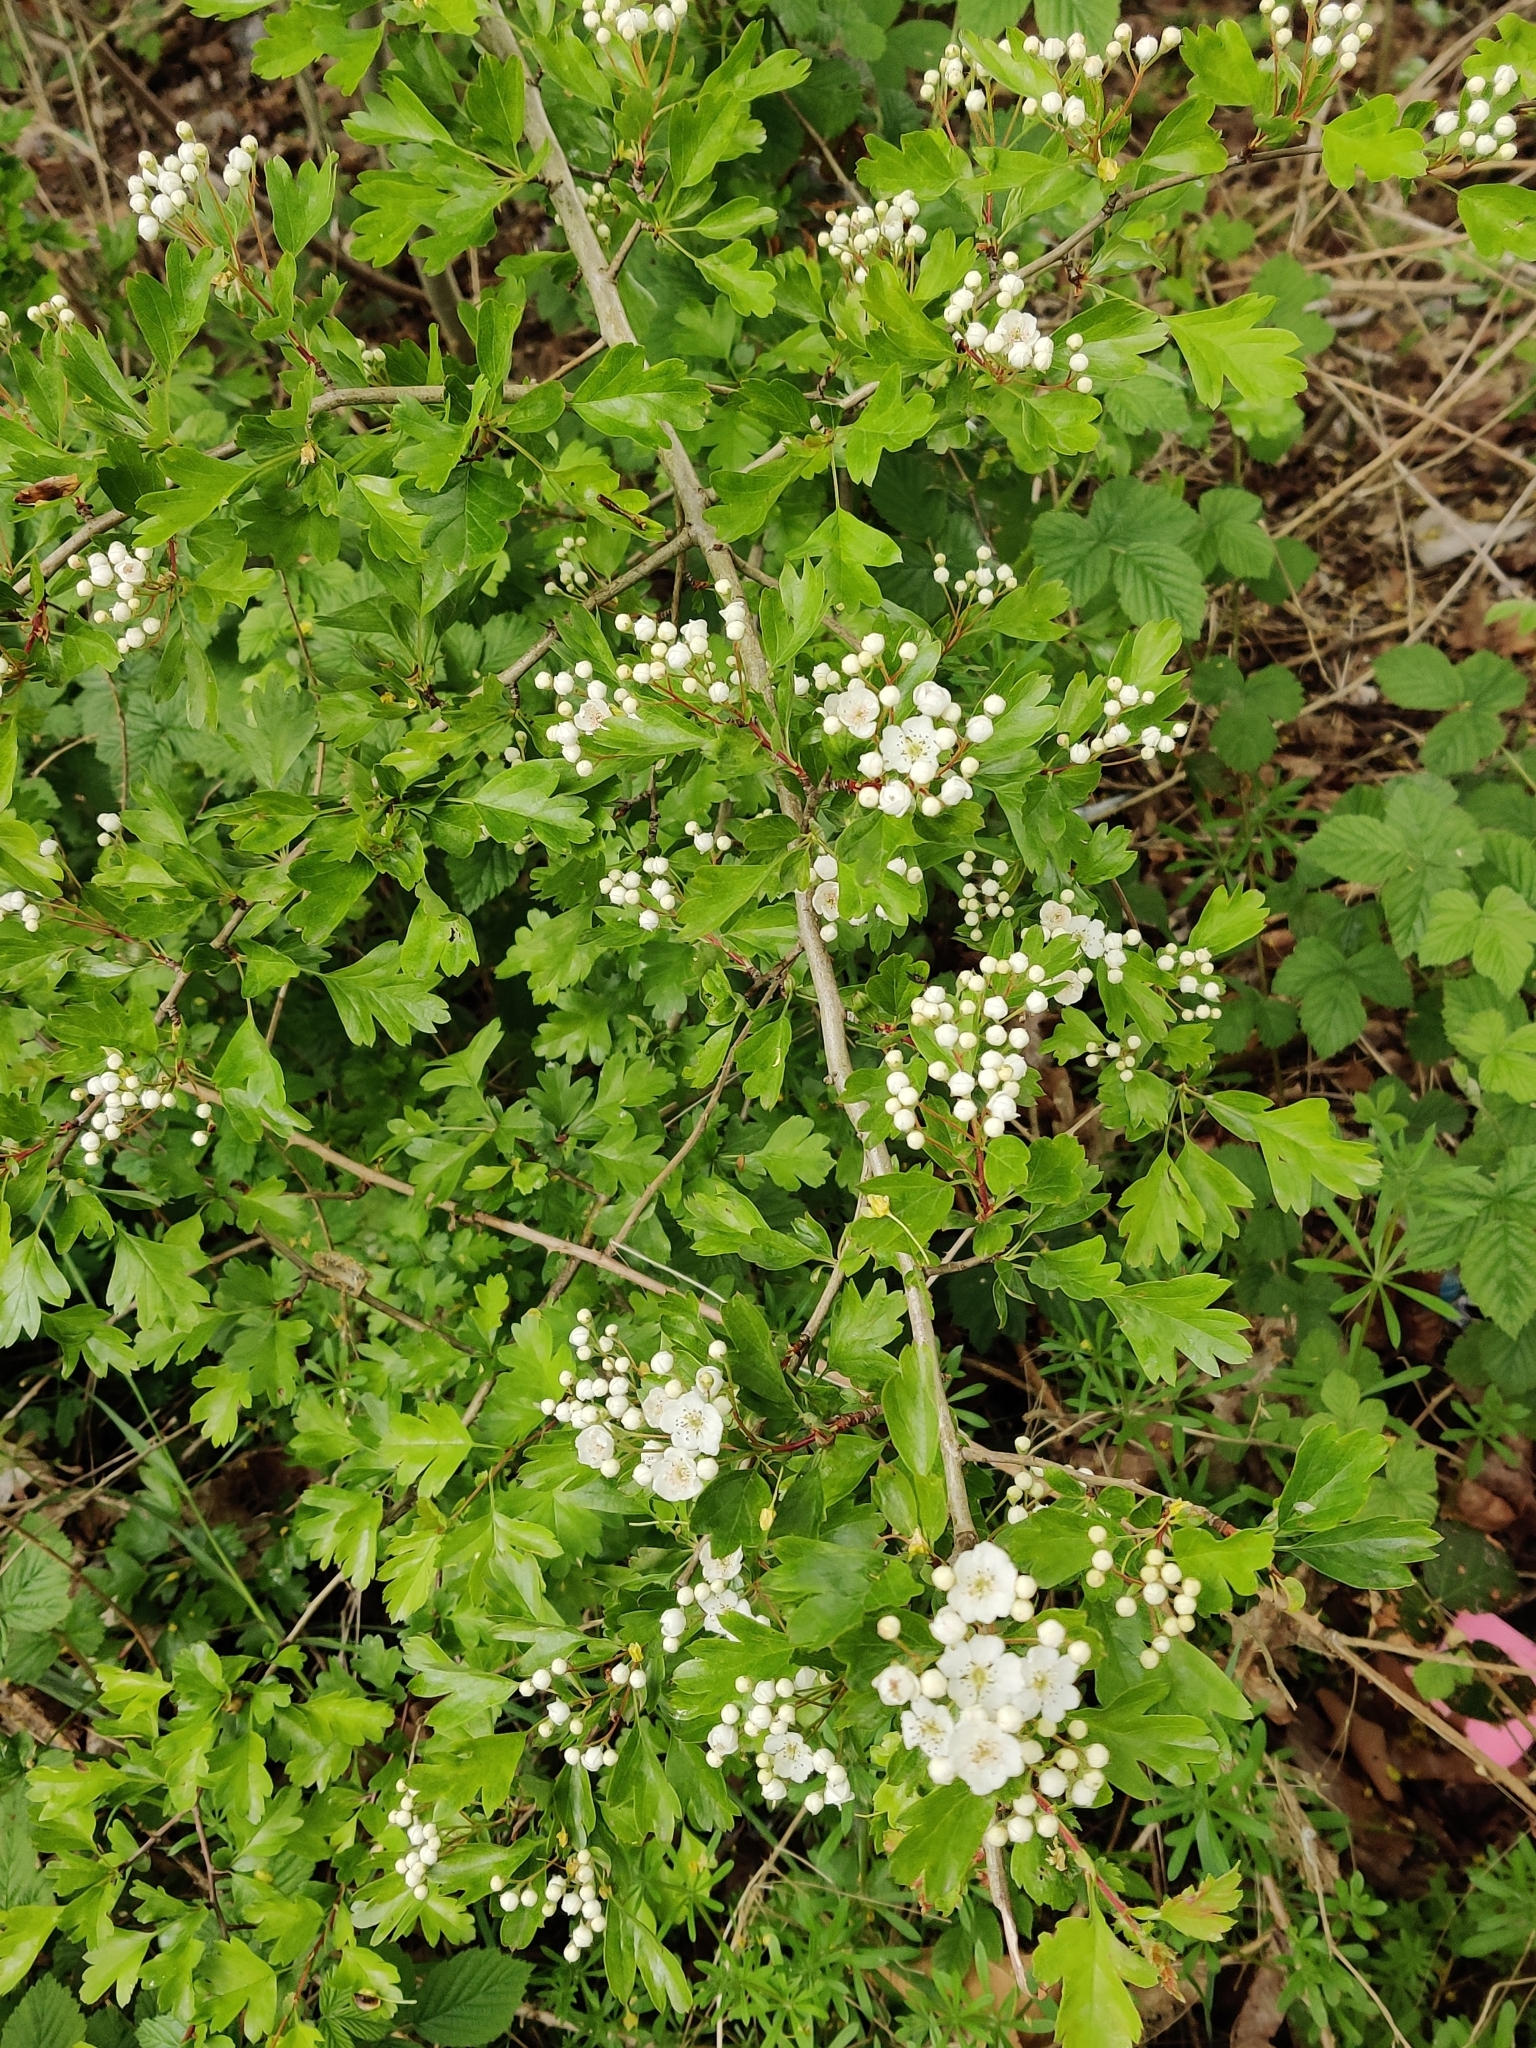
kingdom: Plantae
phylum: Tracheophyta
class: Magnoliopsida
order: Rosales
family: Rosaceae
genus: Crataegus
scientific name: Crataegus monogyna
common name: Hawthorn
